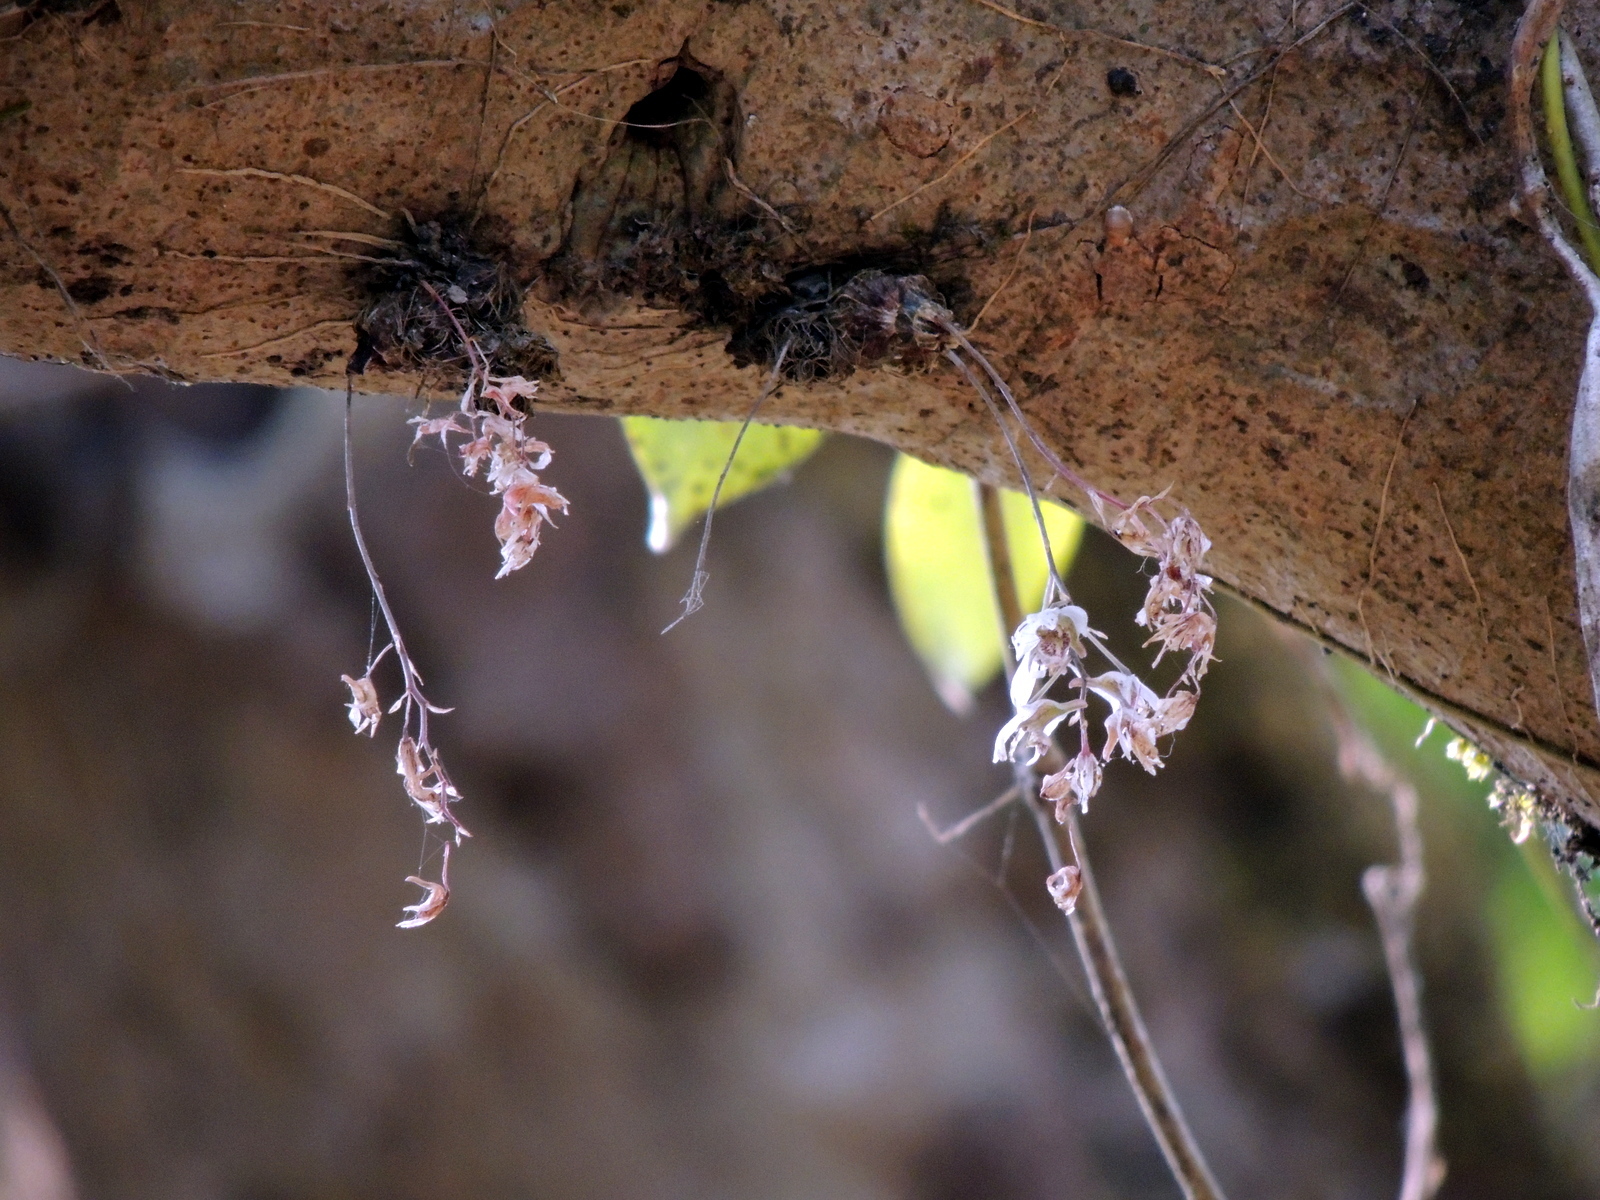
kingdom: Plantae
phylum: Tracheophyta
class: Liliopsida
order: Asparagales
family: Orchidaceae
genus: Dendrobium
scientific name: Dendrobium turbinatum
